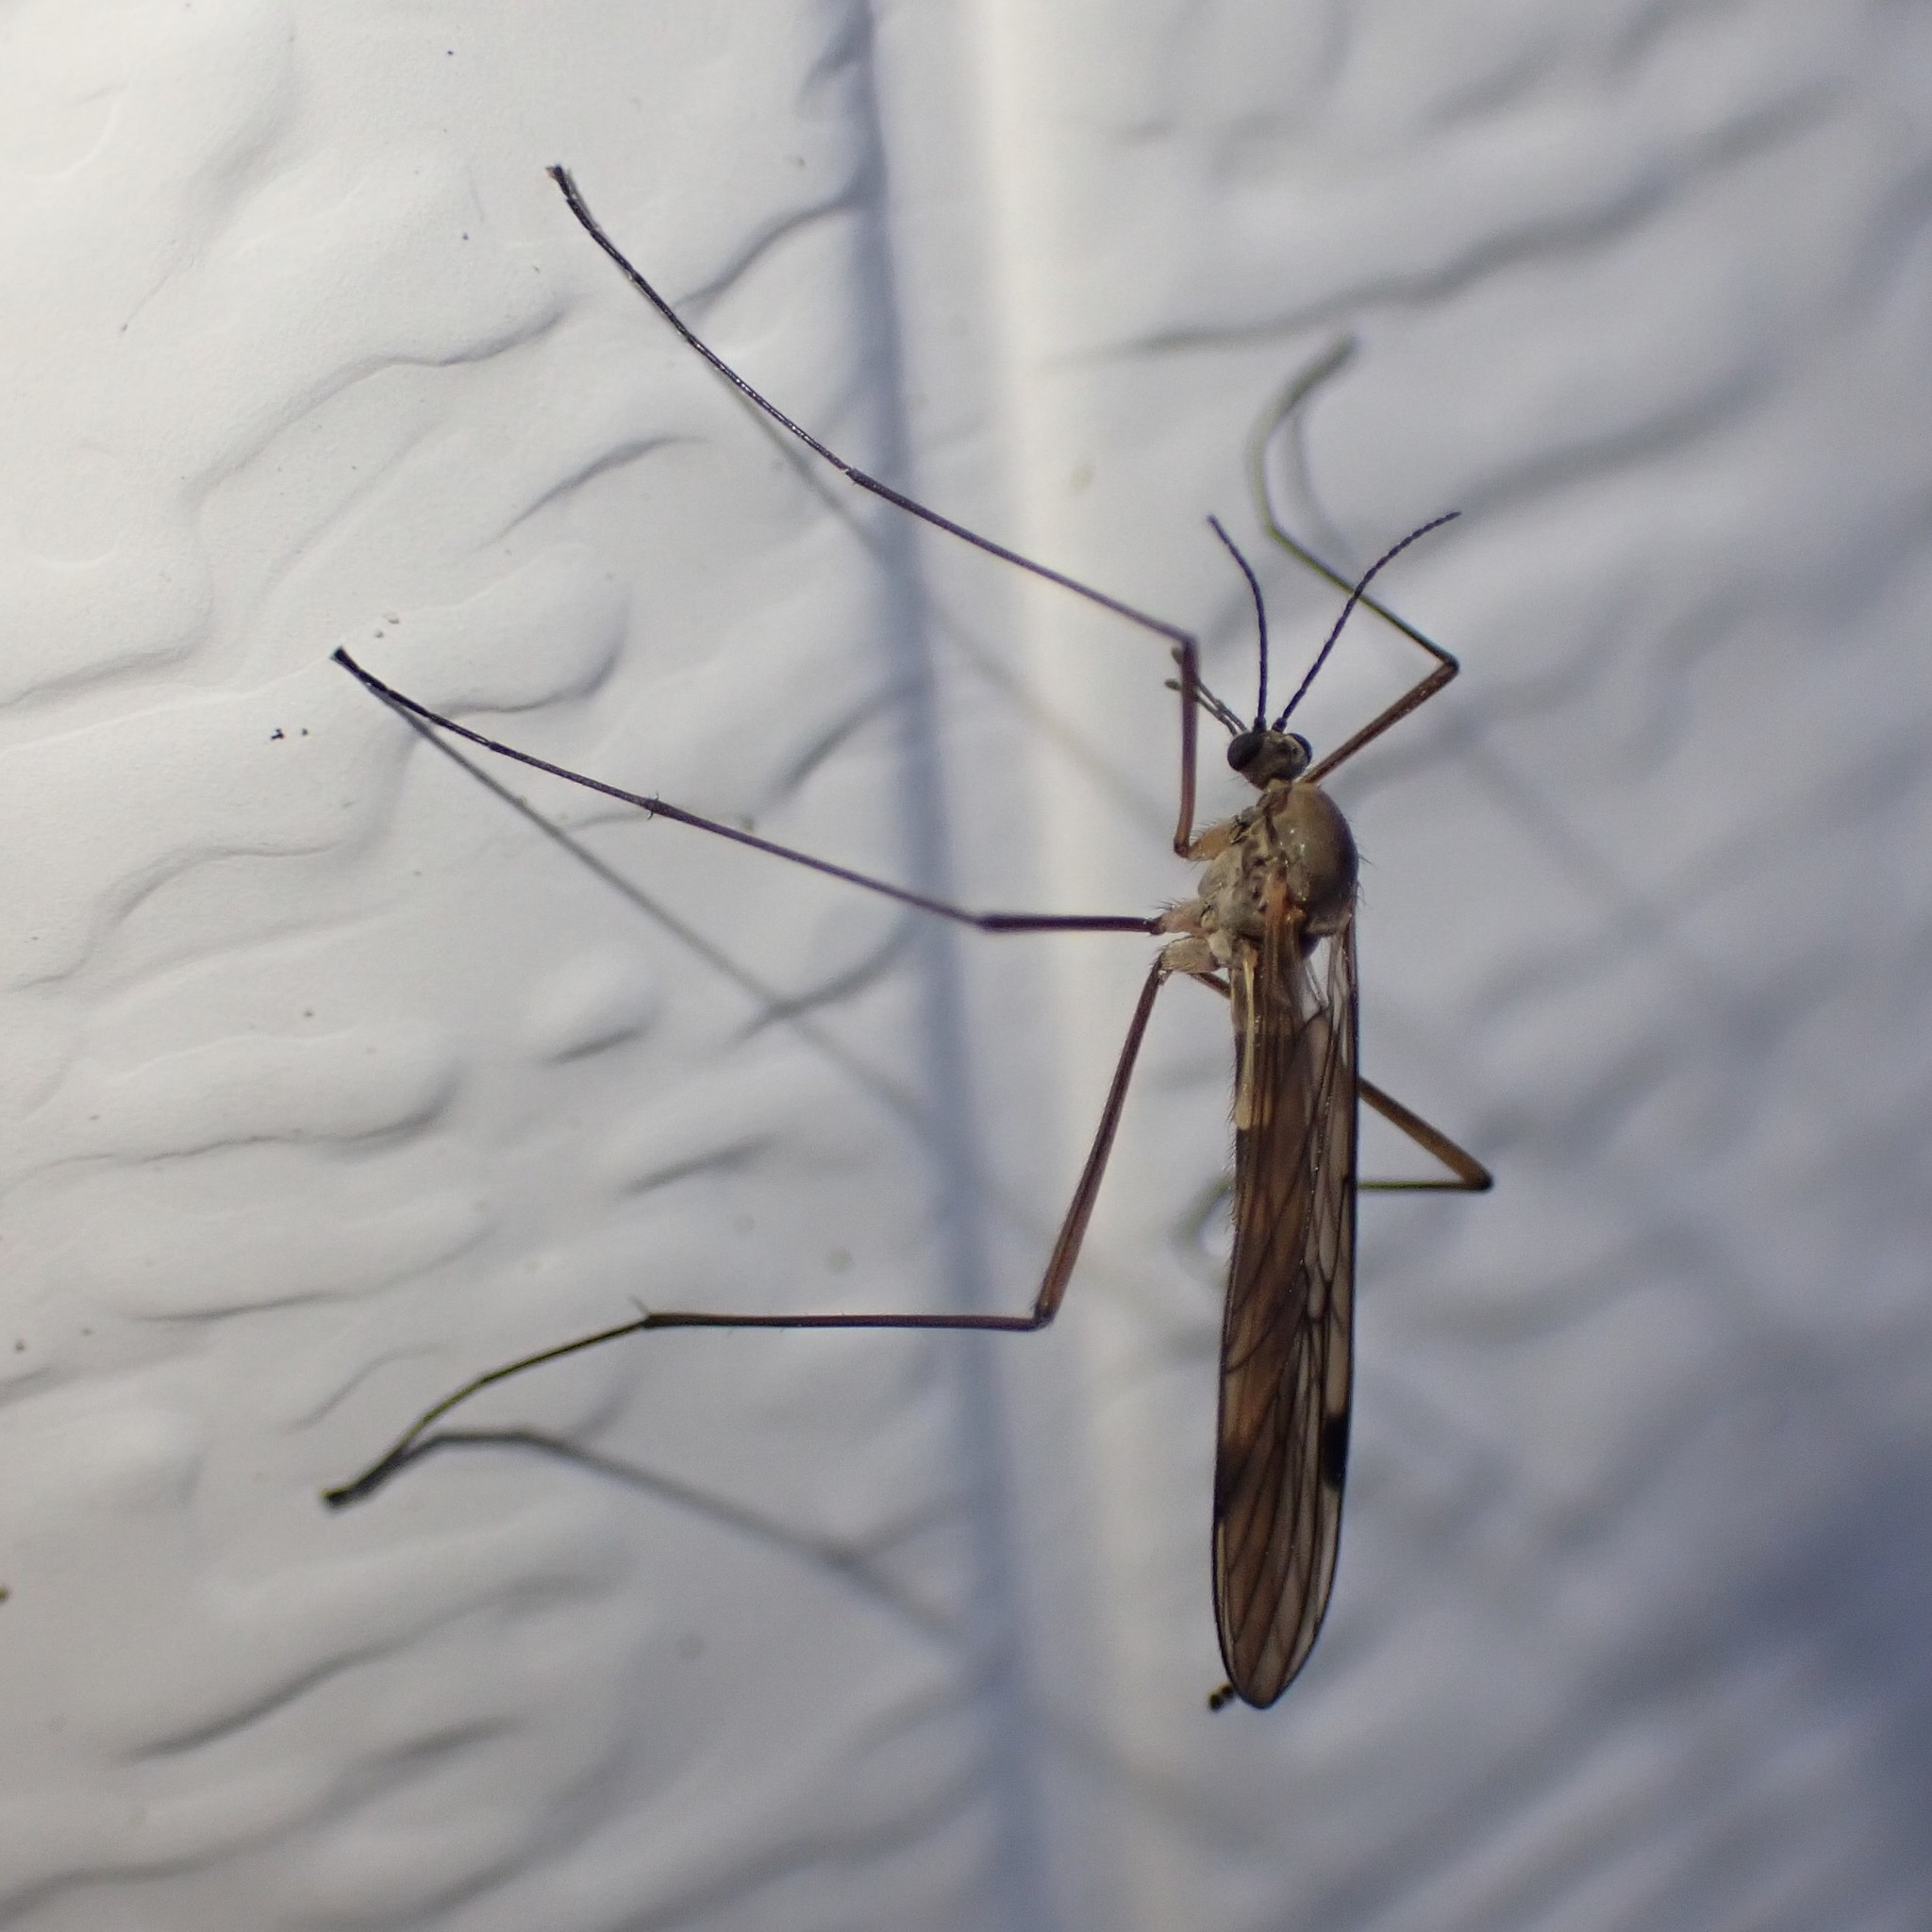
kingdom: Animalia
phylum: Arthropoda
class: Insecta
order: Diptera
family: Pachyneuridae
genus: Cramptonomyia
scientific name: Cramptonomyia spenceri
